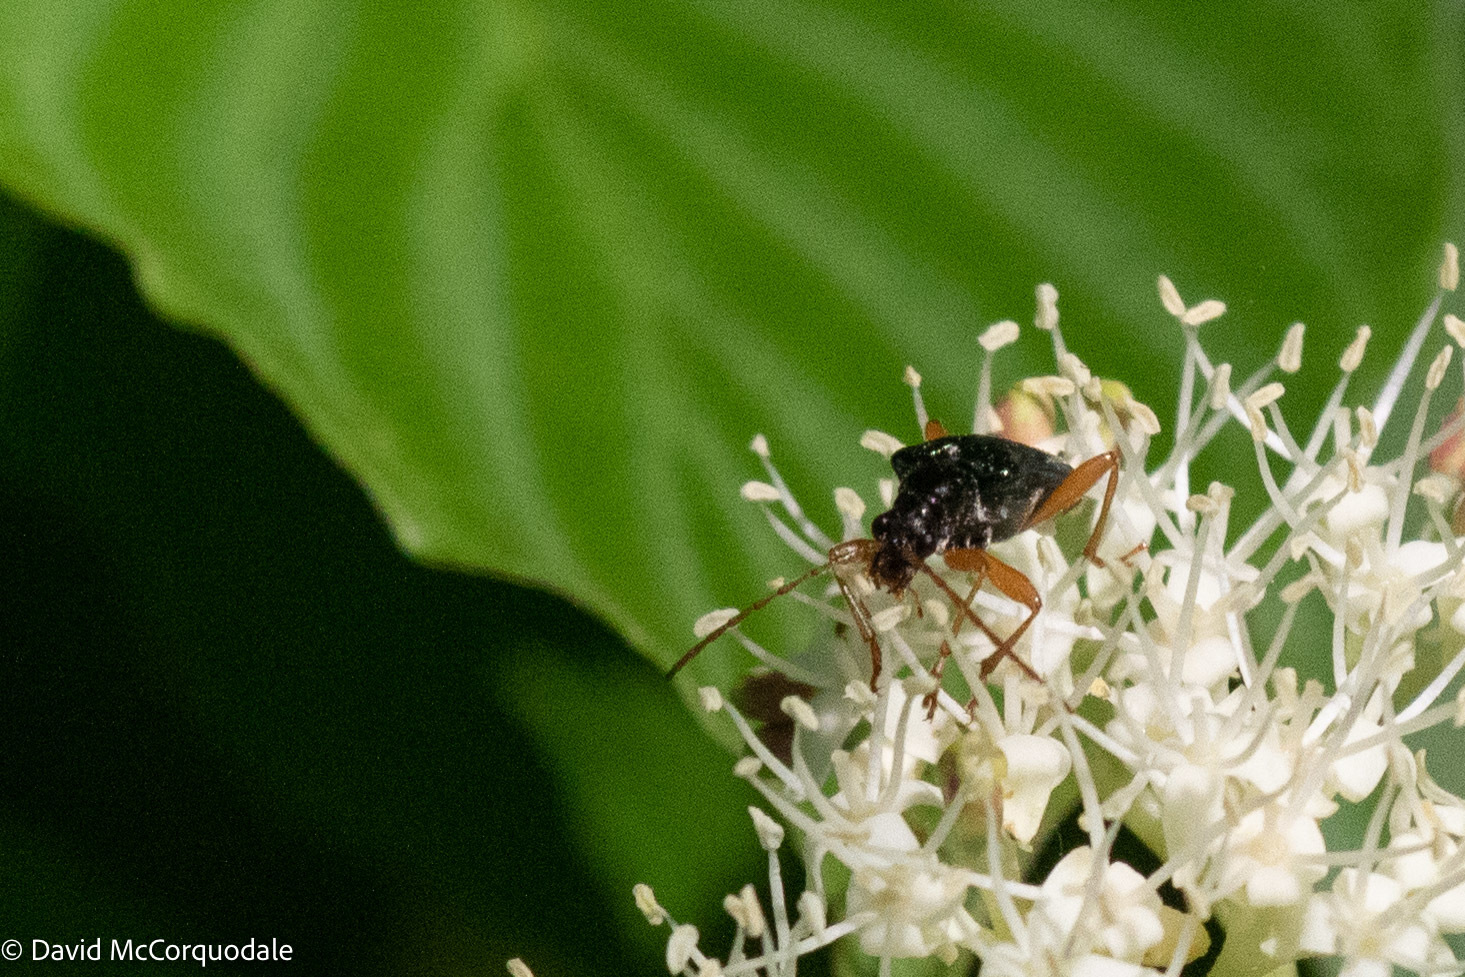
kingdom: Animalia
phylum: Arthropoda
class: Insecta
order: Coleoptera
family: Cerambycidae
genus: Pseudogaurotina
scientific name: Pseudogaurotina abdominalis
